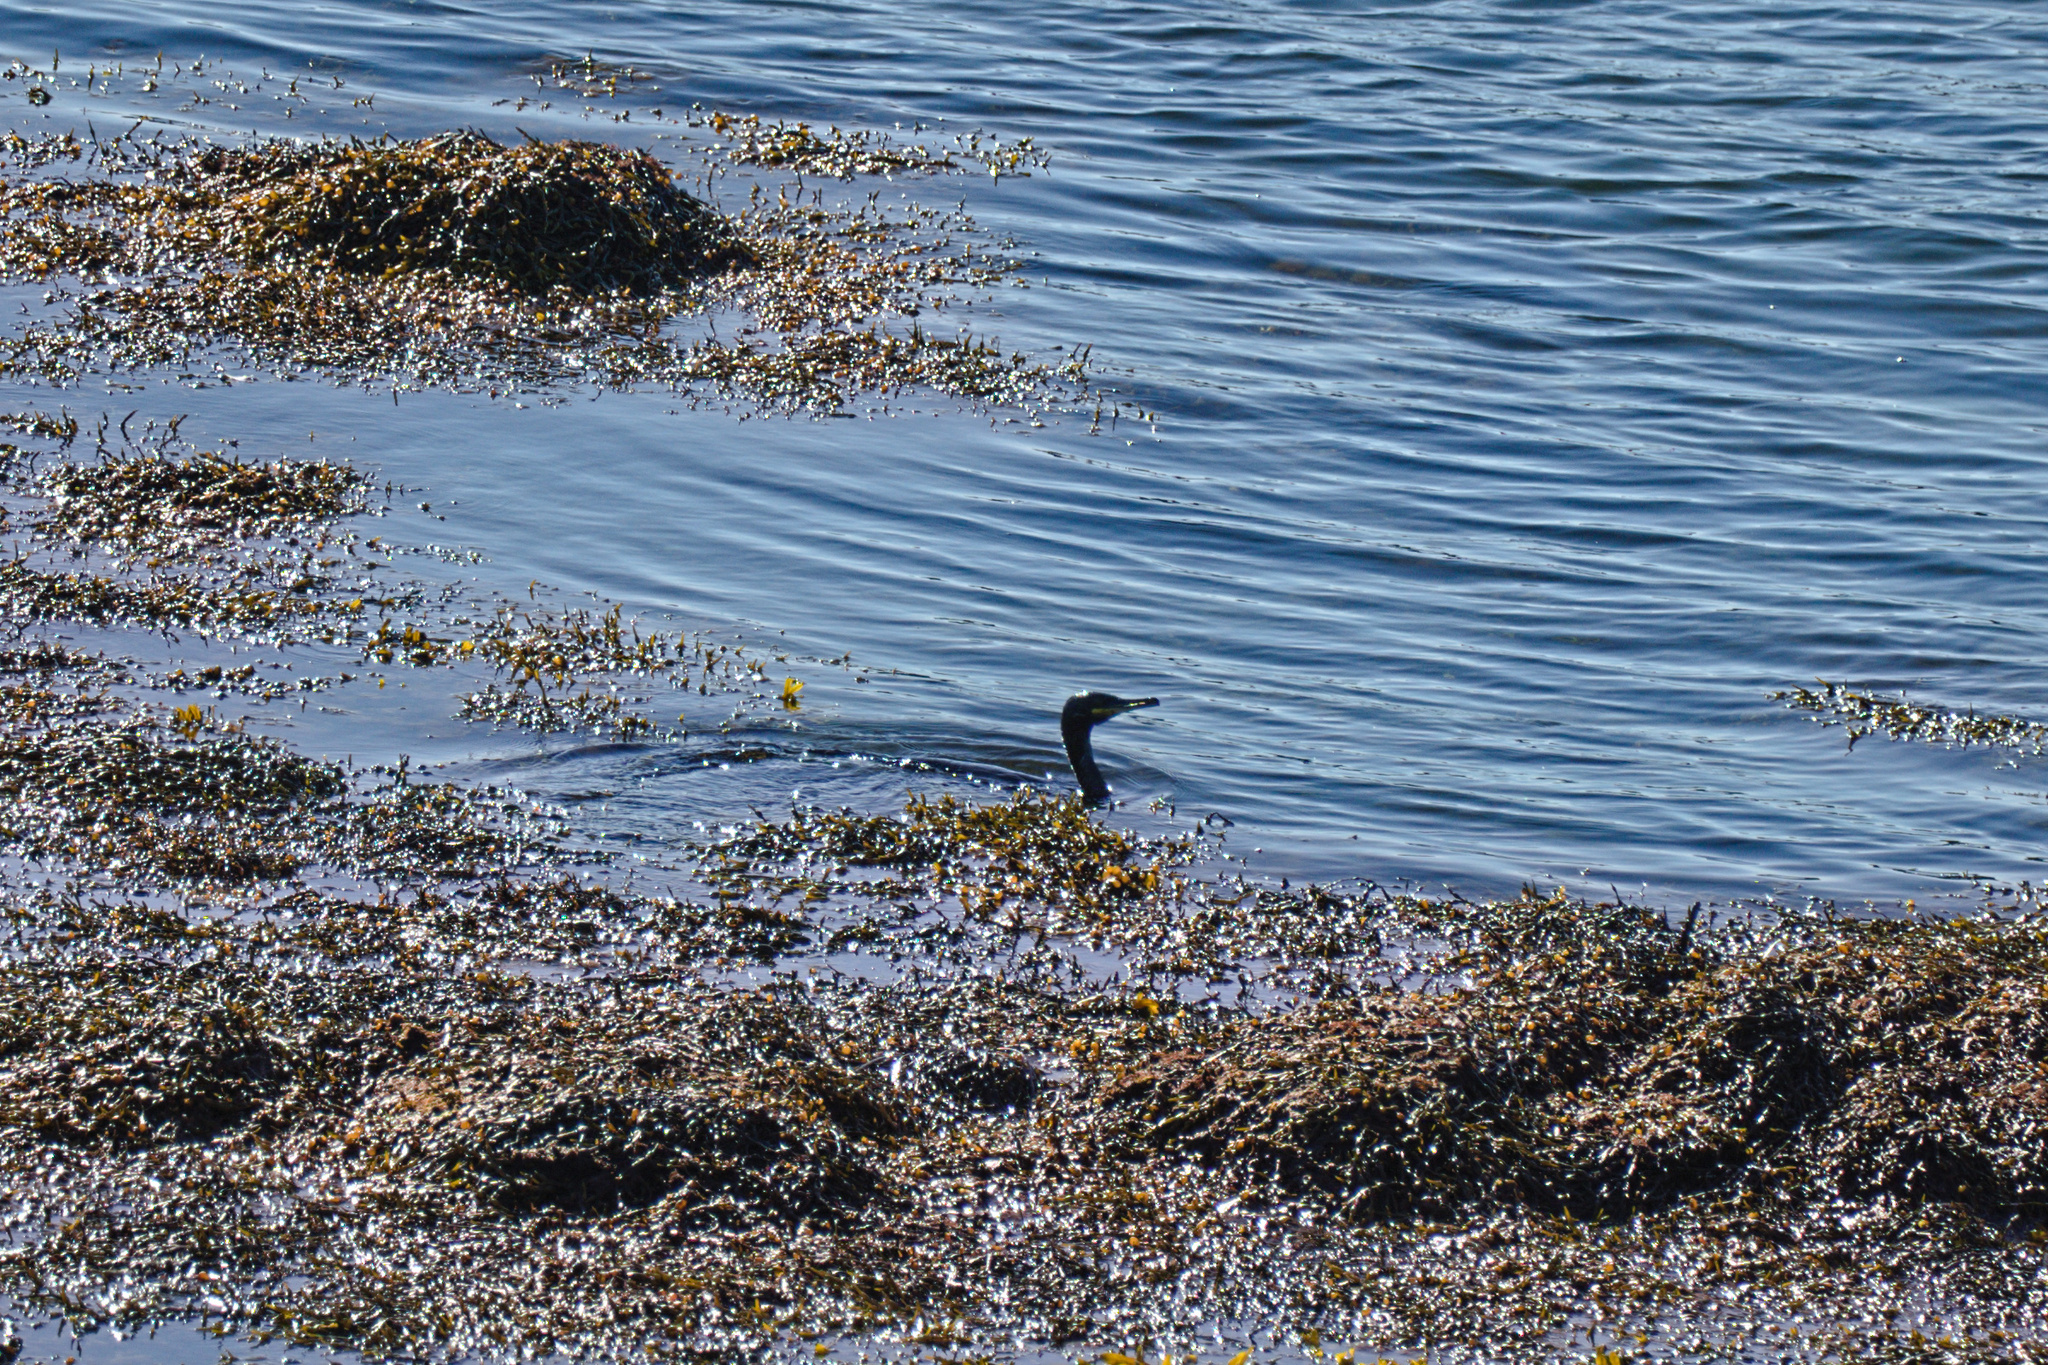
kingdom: Animalia
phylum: Chordata
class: Aves
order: Suliformes
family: Phalacrocoracidae
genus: Phalacrocorax
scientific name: Phalacrocorax aristotelis
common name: European shag
